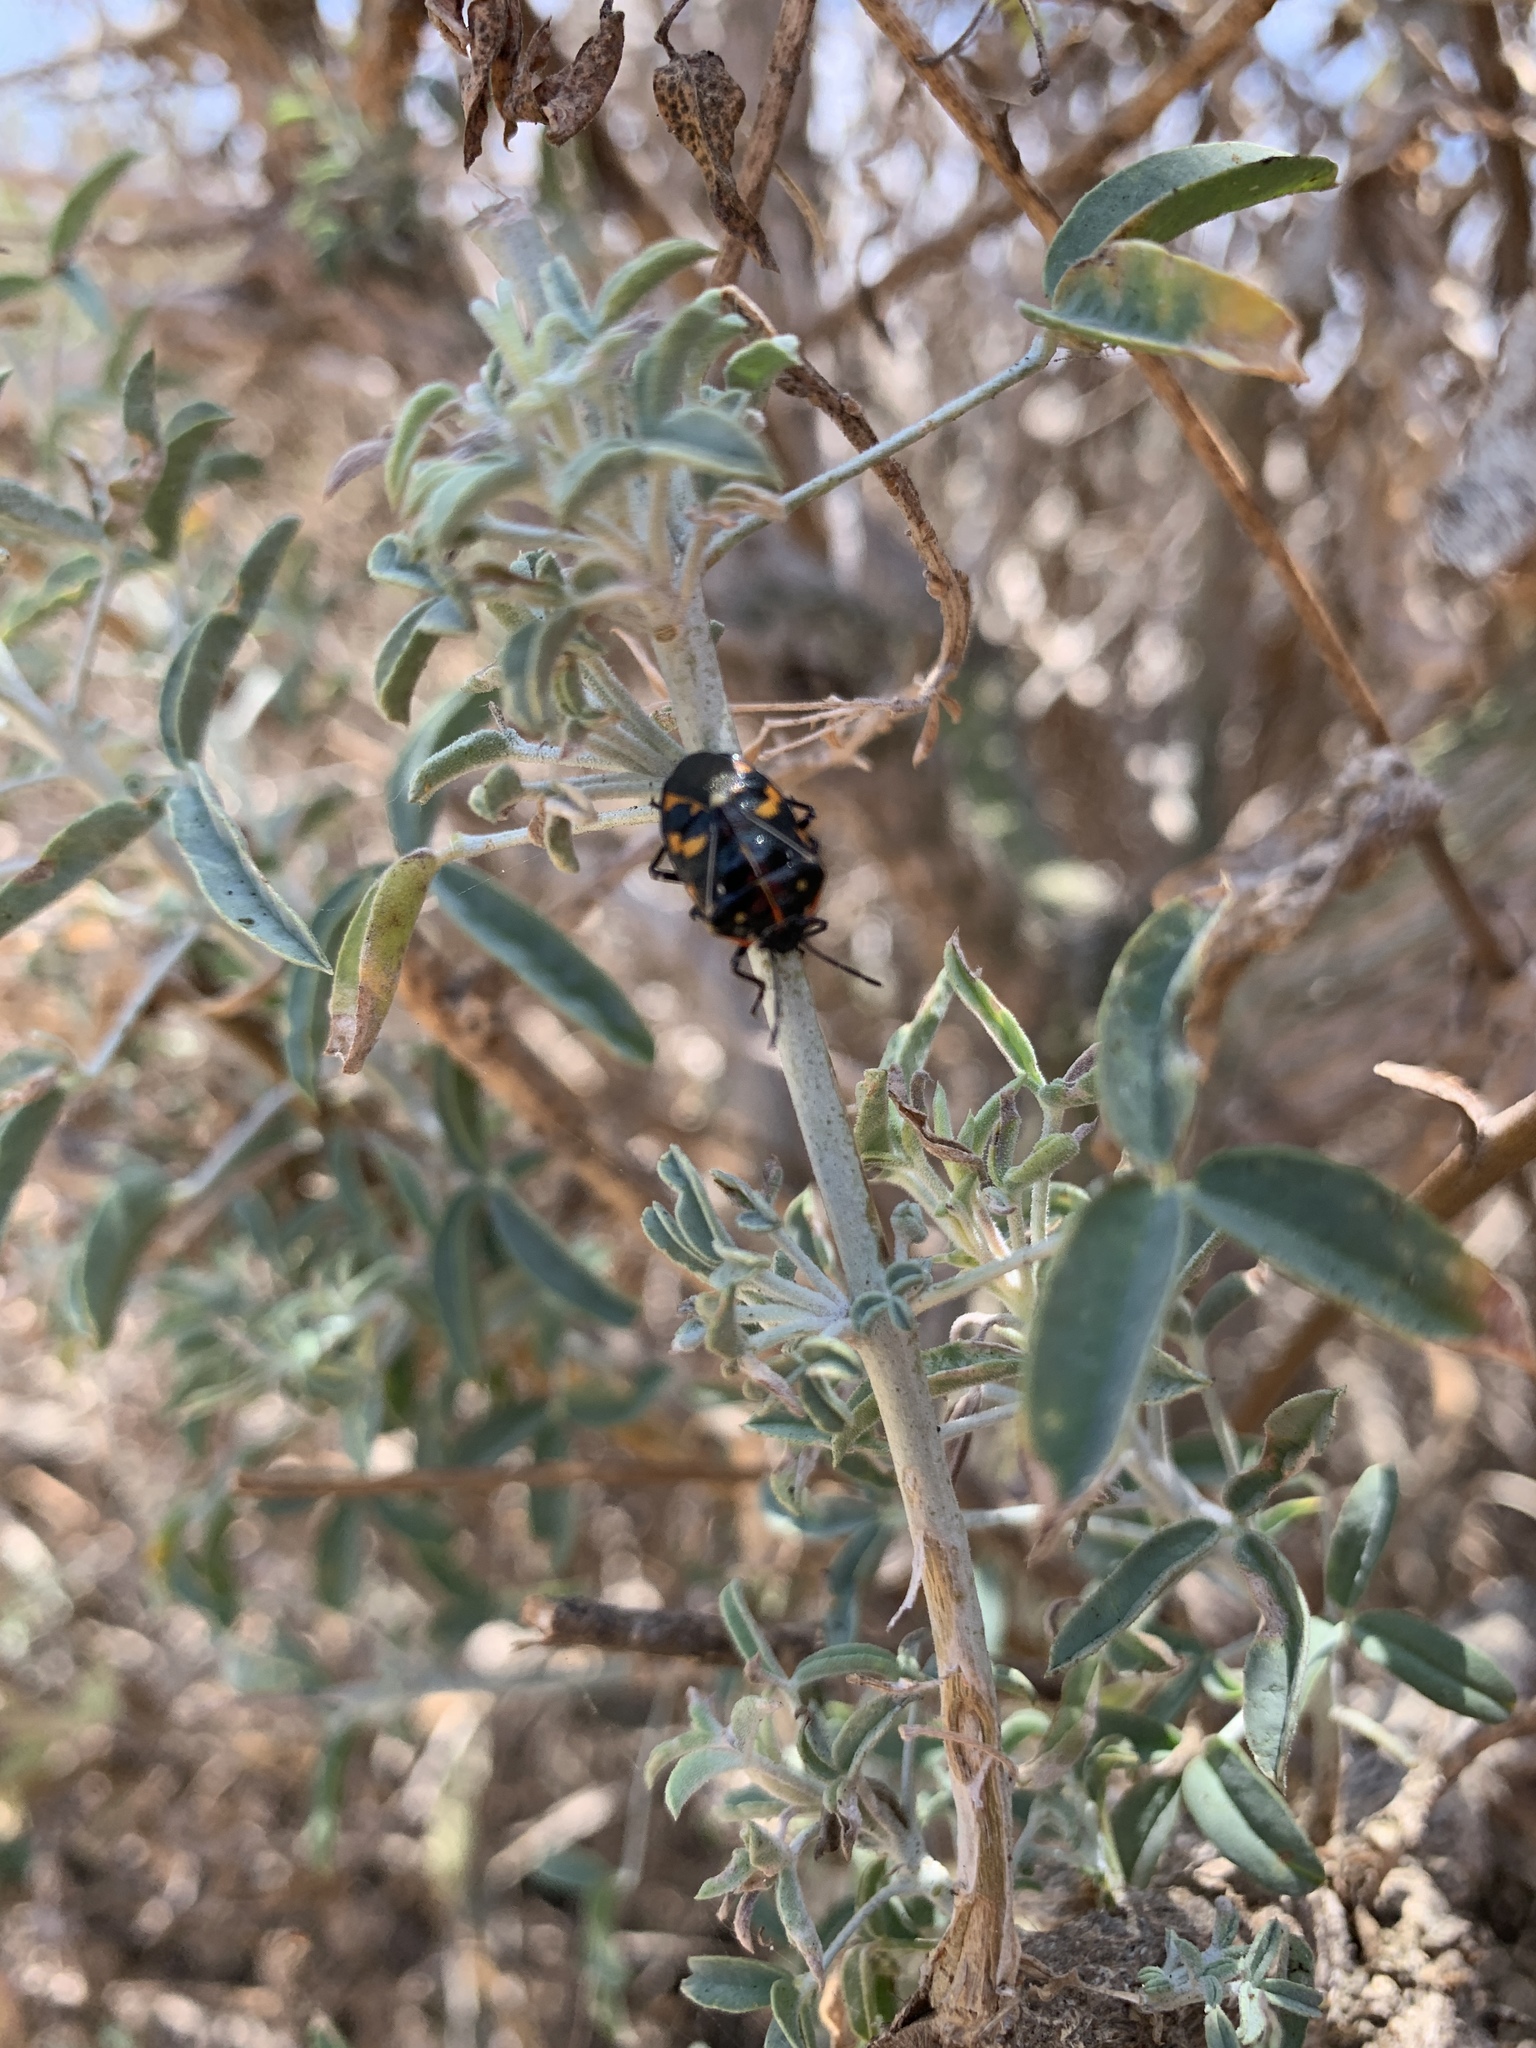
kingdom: Animalia
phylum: Arthropoda
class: Insecta
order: Hemiptera
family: Pentatomidae
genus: Murgantia
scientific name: Murgantia histrionica
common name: Harlequin bug
